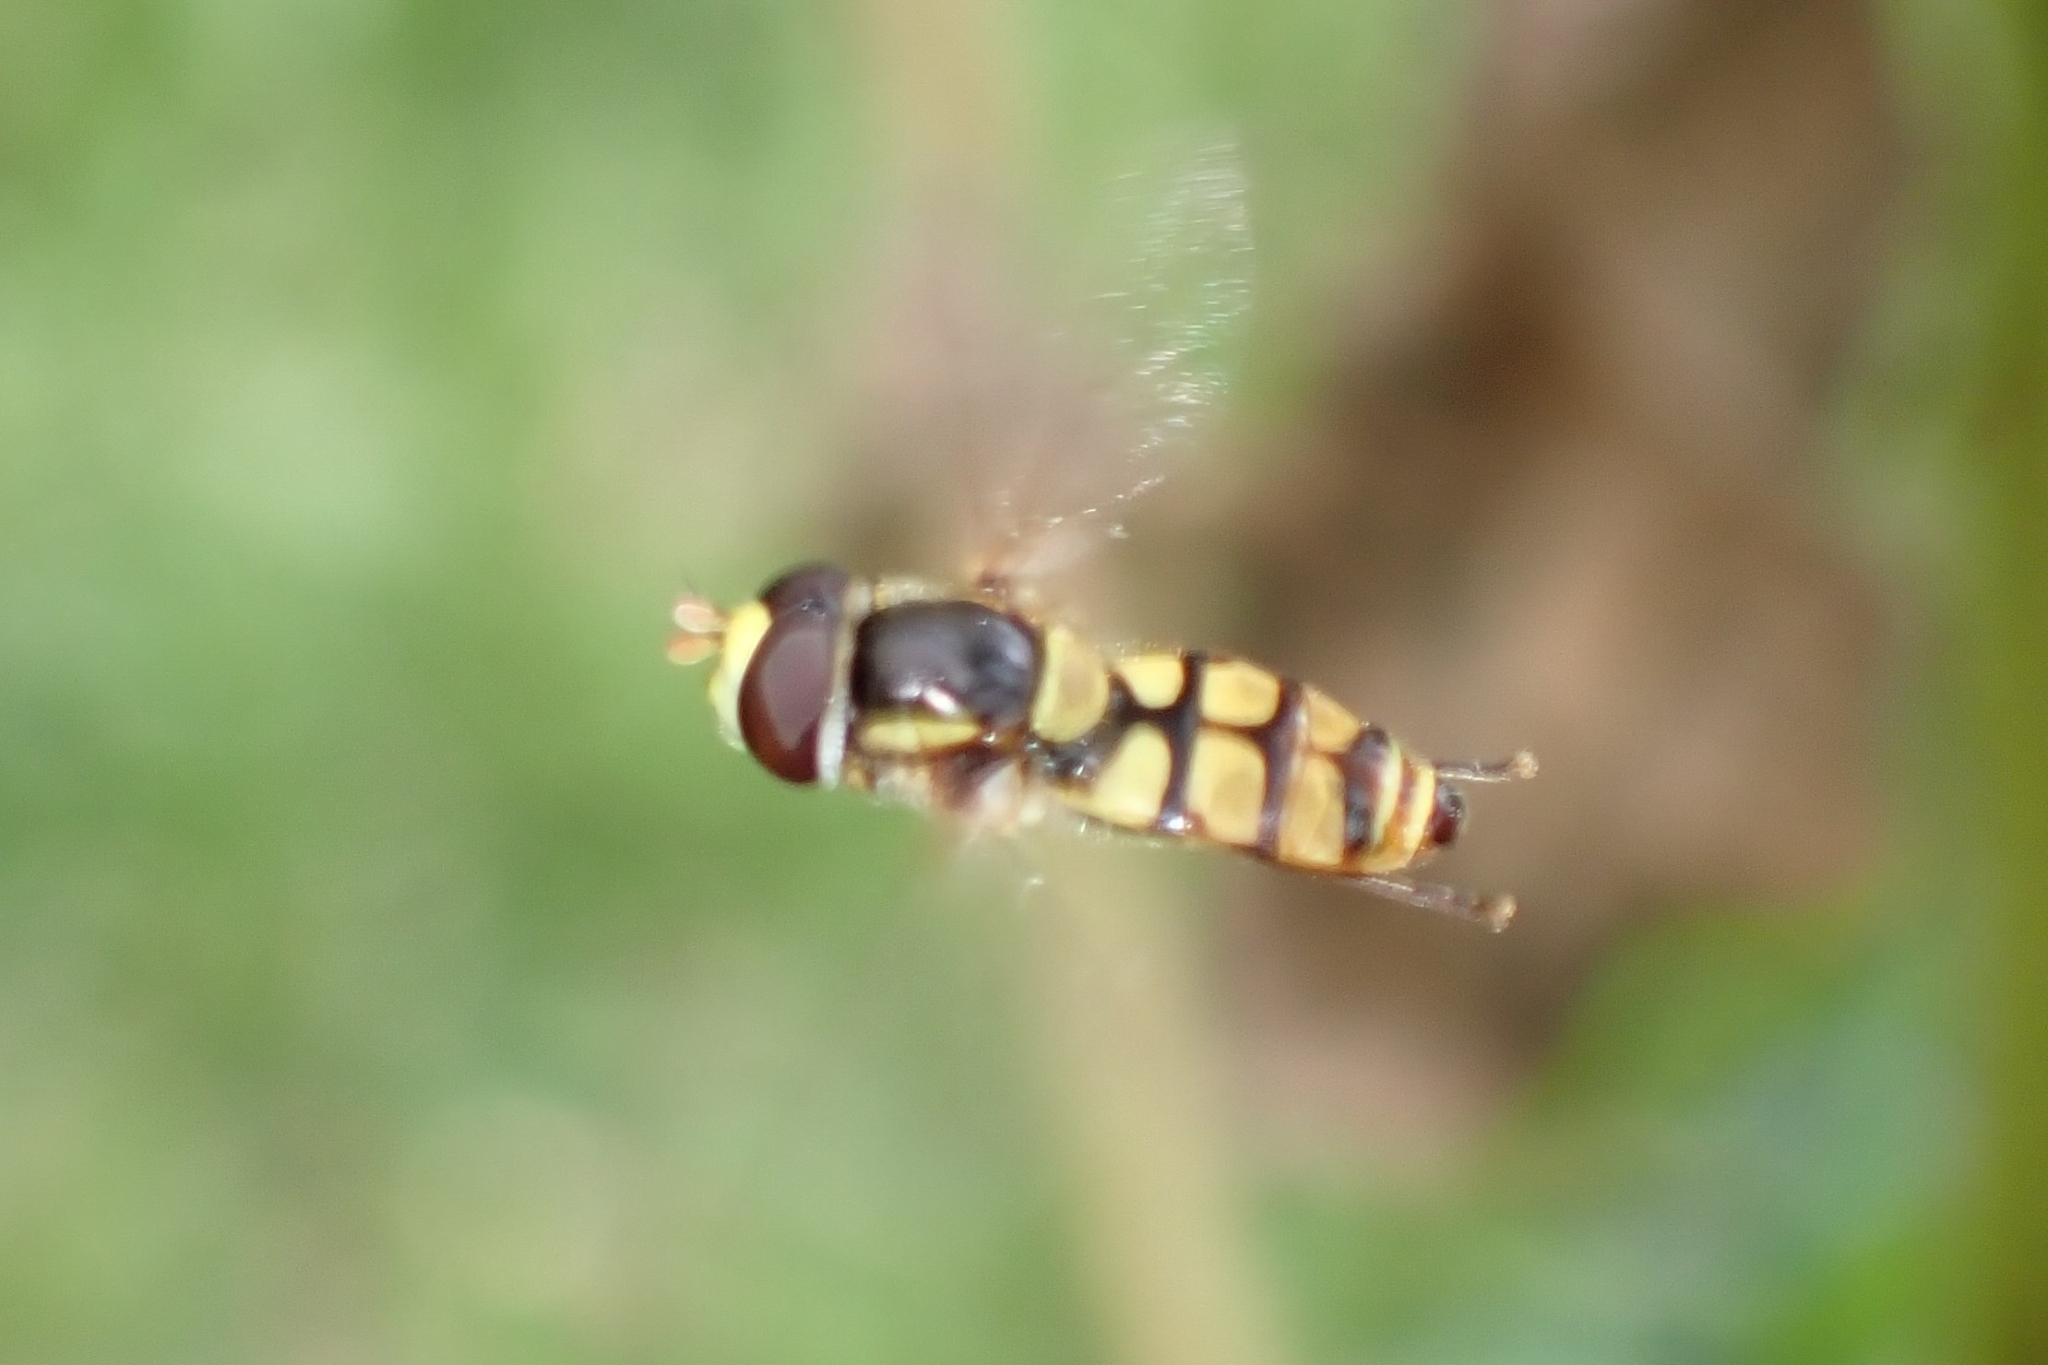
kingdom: Animalia
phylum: Arthropoda
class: Insecta
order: Diptera
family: Syrphidae
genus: Simosyrphus
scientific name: Simosyrphus grandicornis
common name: Hoverfly
